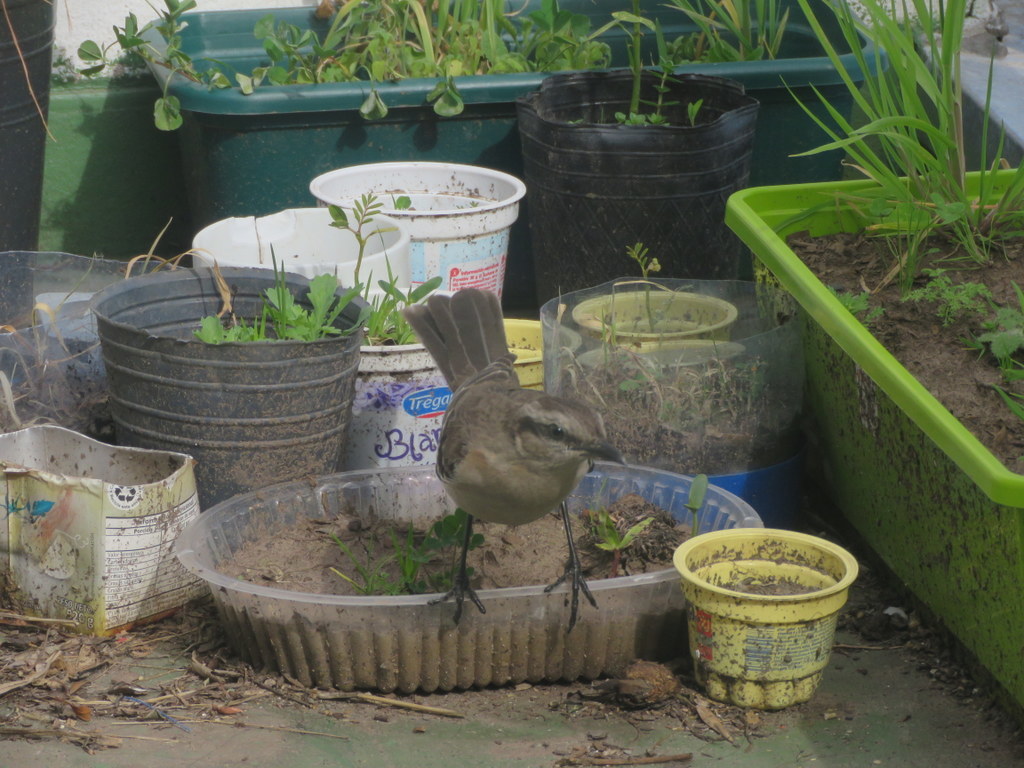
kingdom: Animalia
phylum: Chordata
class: Aves
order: Passeriformes
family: Mimidae
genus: Mimus
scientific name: Mimus saturninus
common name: Chalk-browed mockingbird
